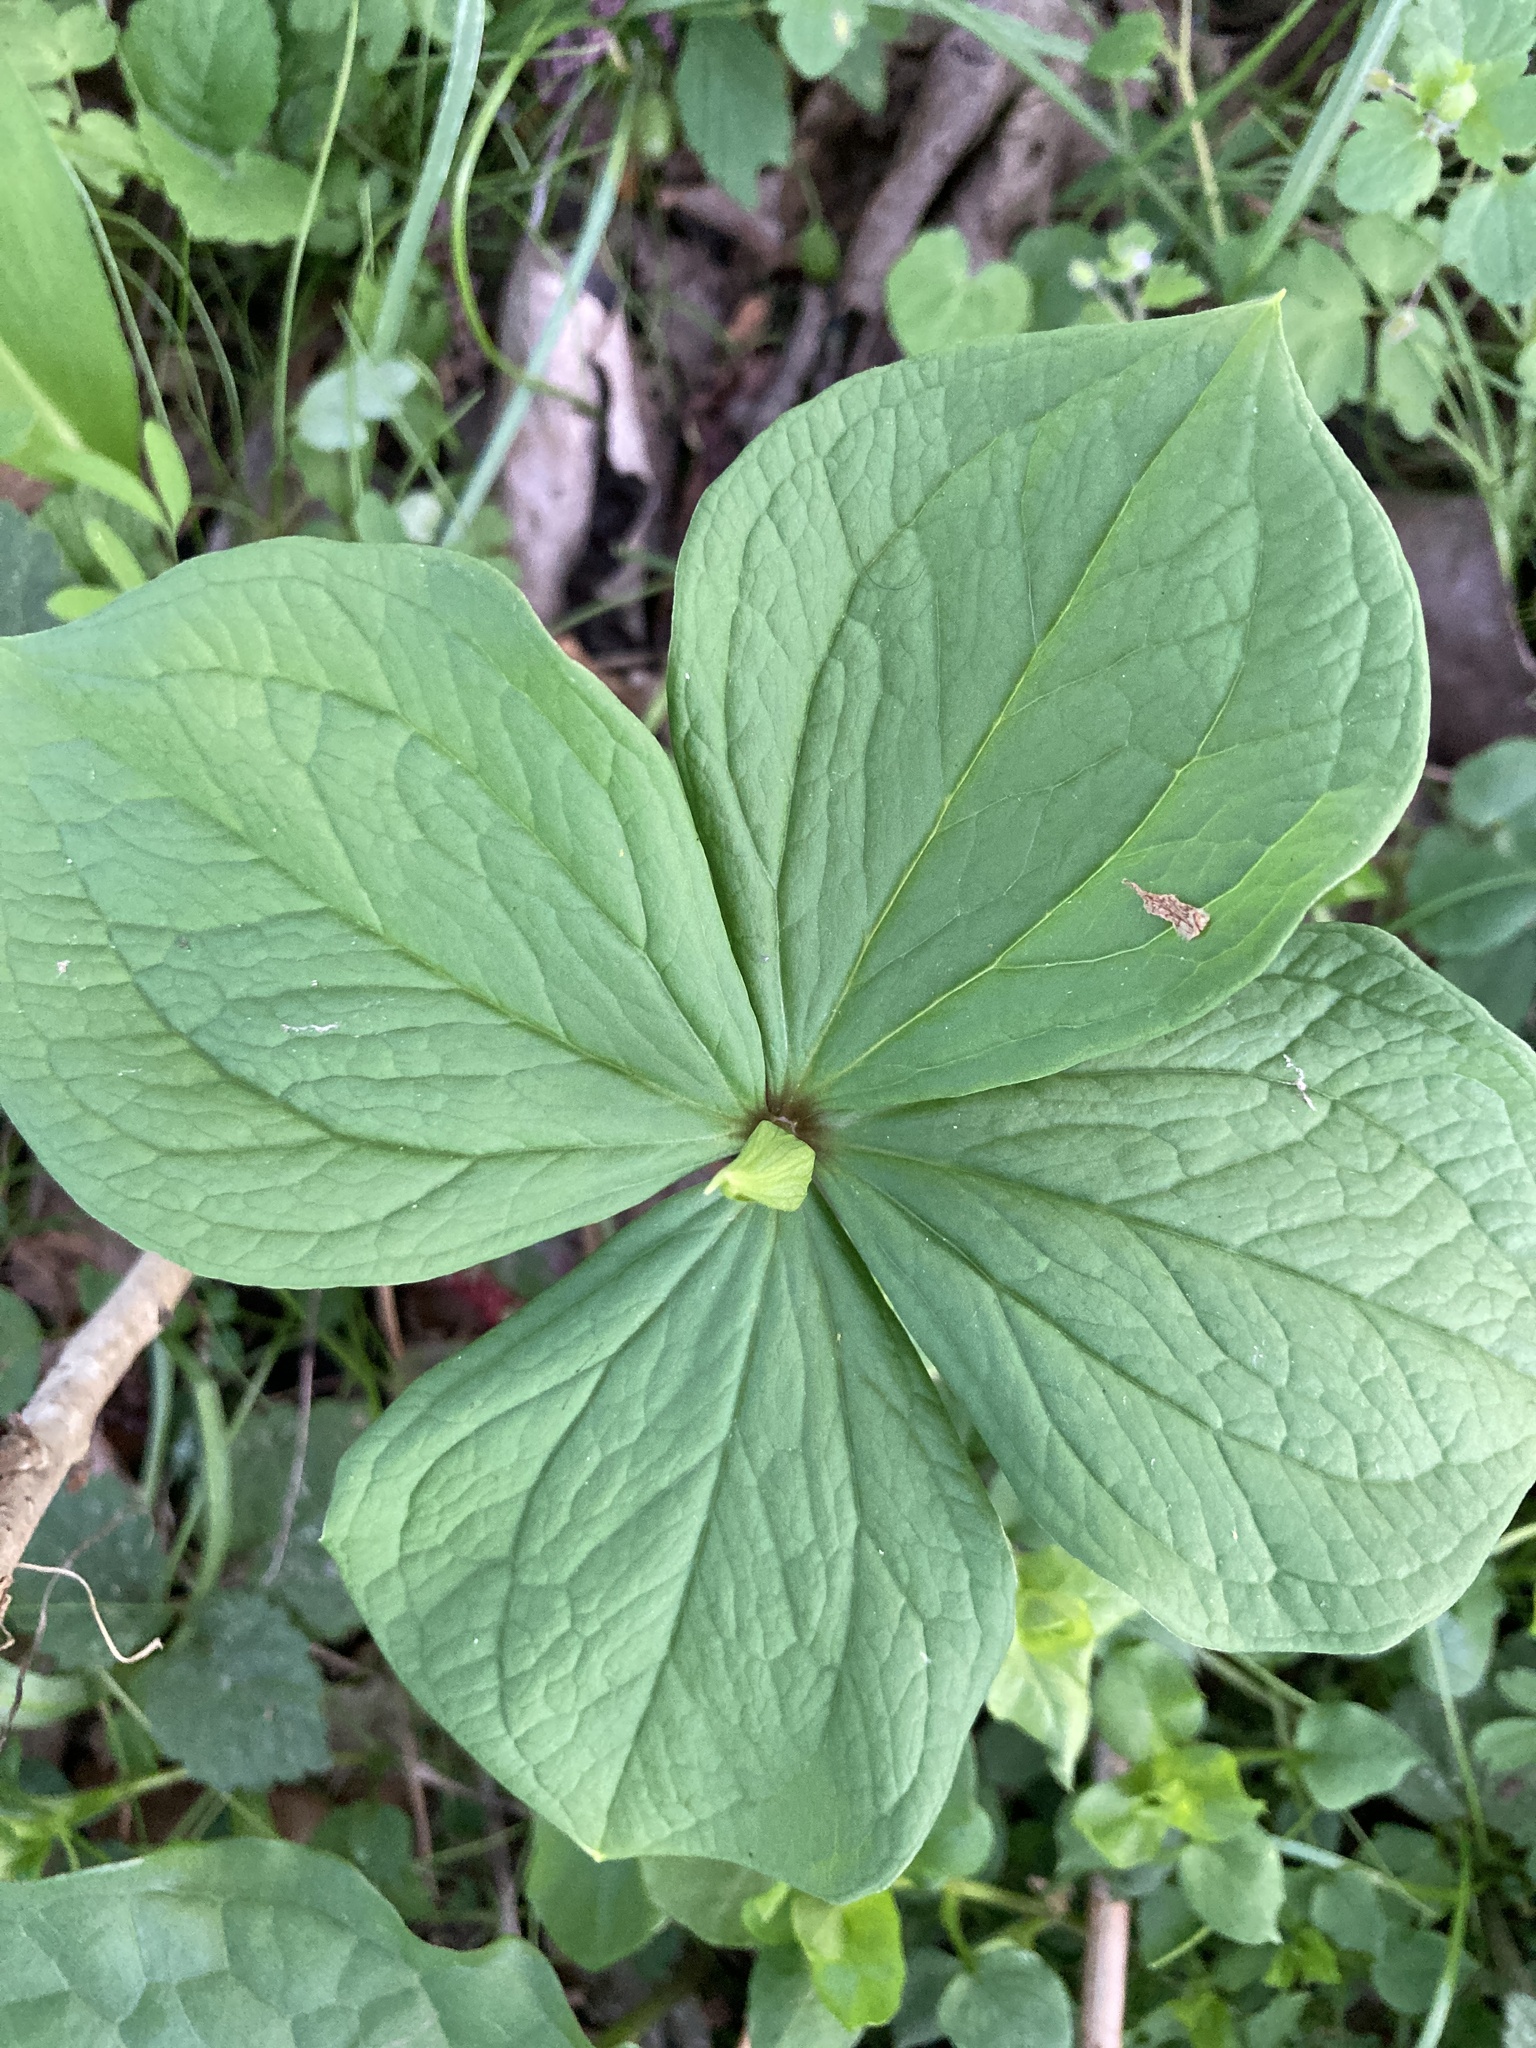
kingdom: Plantae
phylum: Tracheophyta
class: Liliopsida
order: Liliales
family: Melanthiaceae
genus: Paris
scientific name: Paris quadrifolia
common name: Herb-paris
